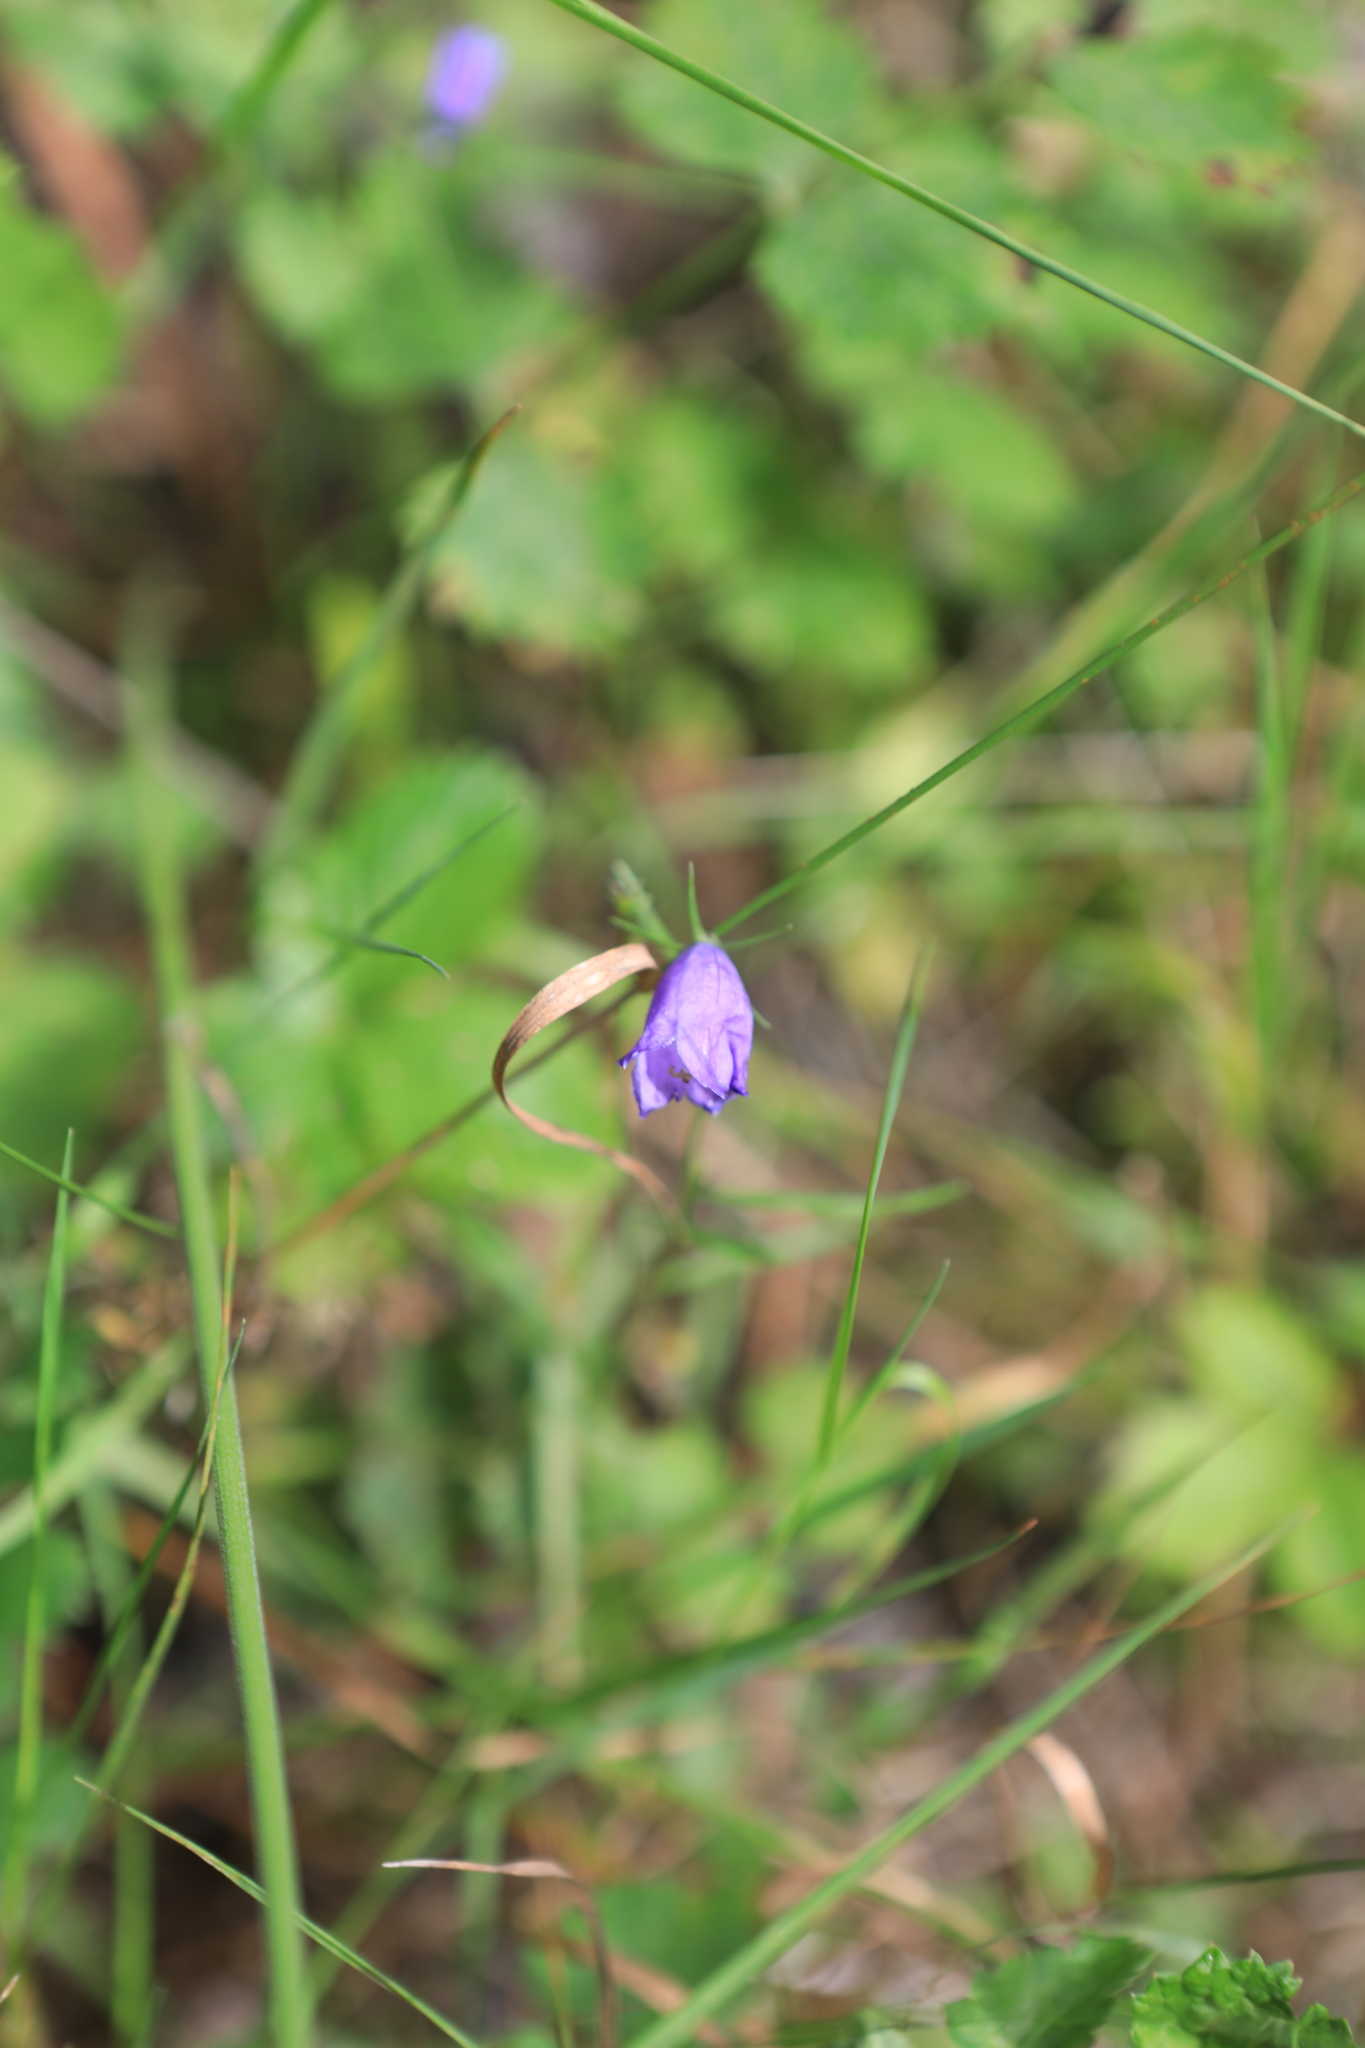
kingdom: Plantae
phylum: Tracheophyta
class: Magnoliopsida
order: Asterales
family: Campanulaceae
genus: Campanula
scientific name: Campanula rotundifolia
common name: Harebell
